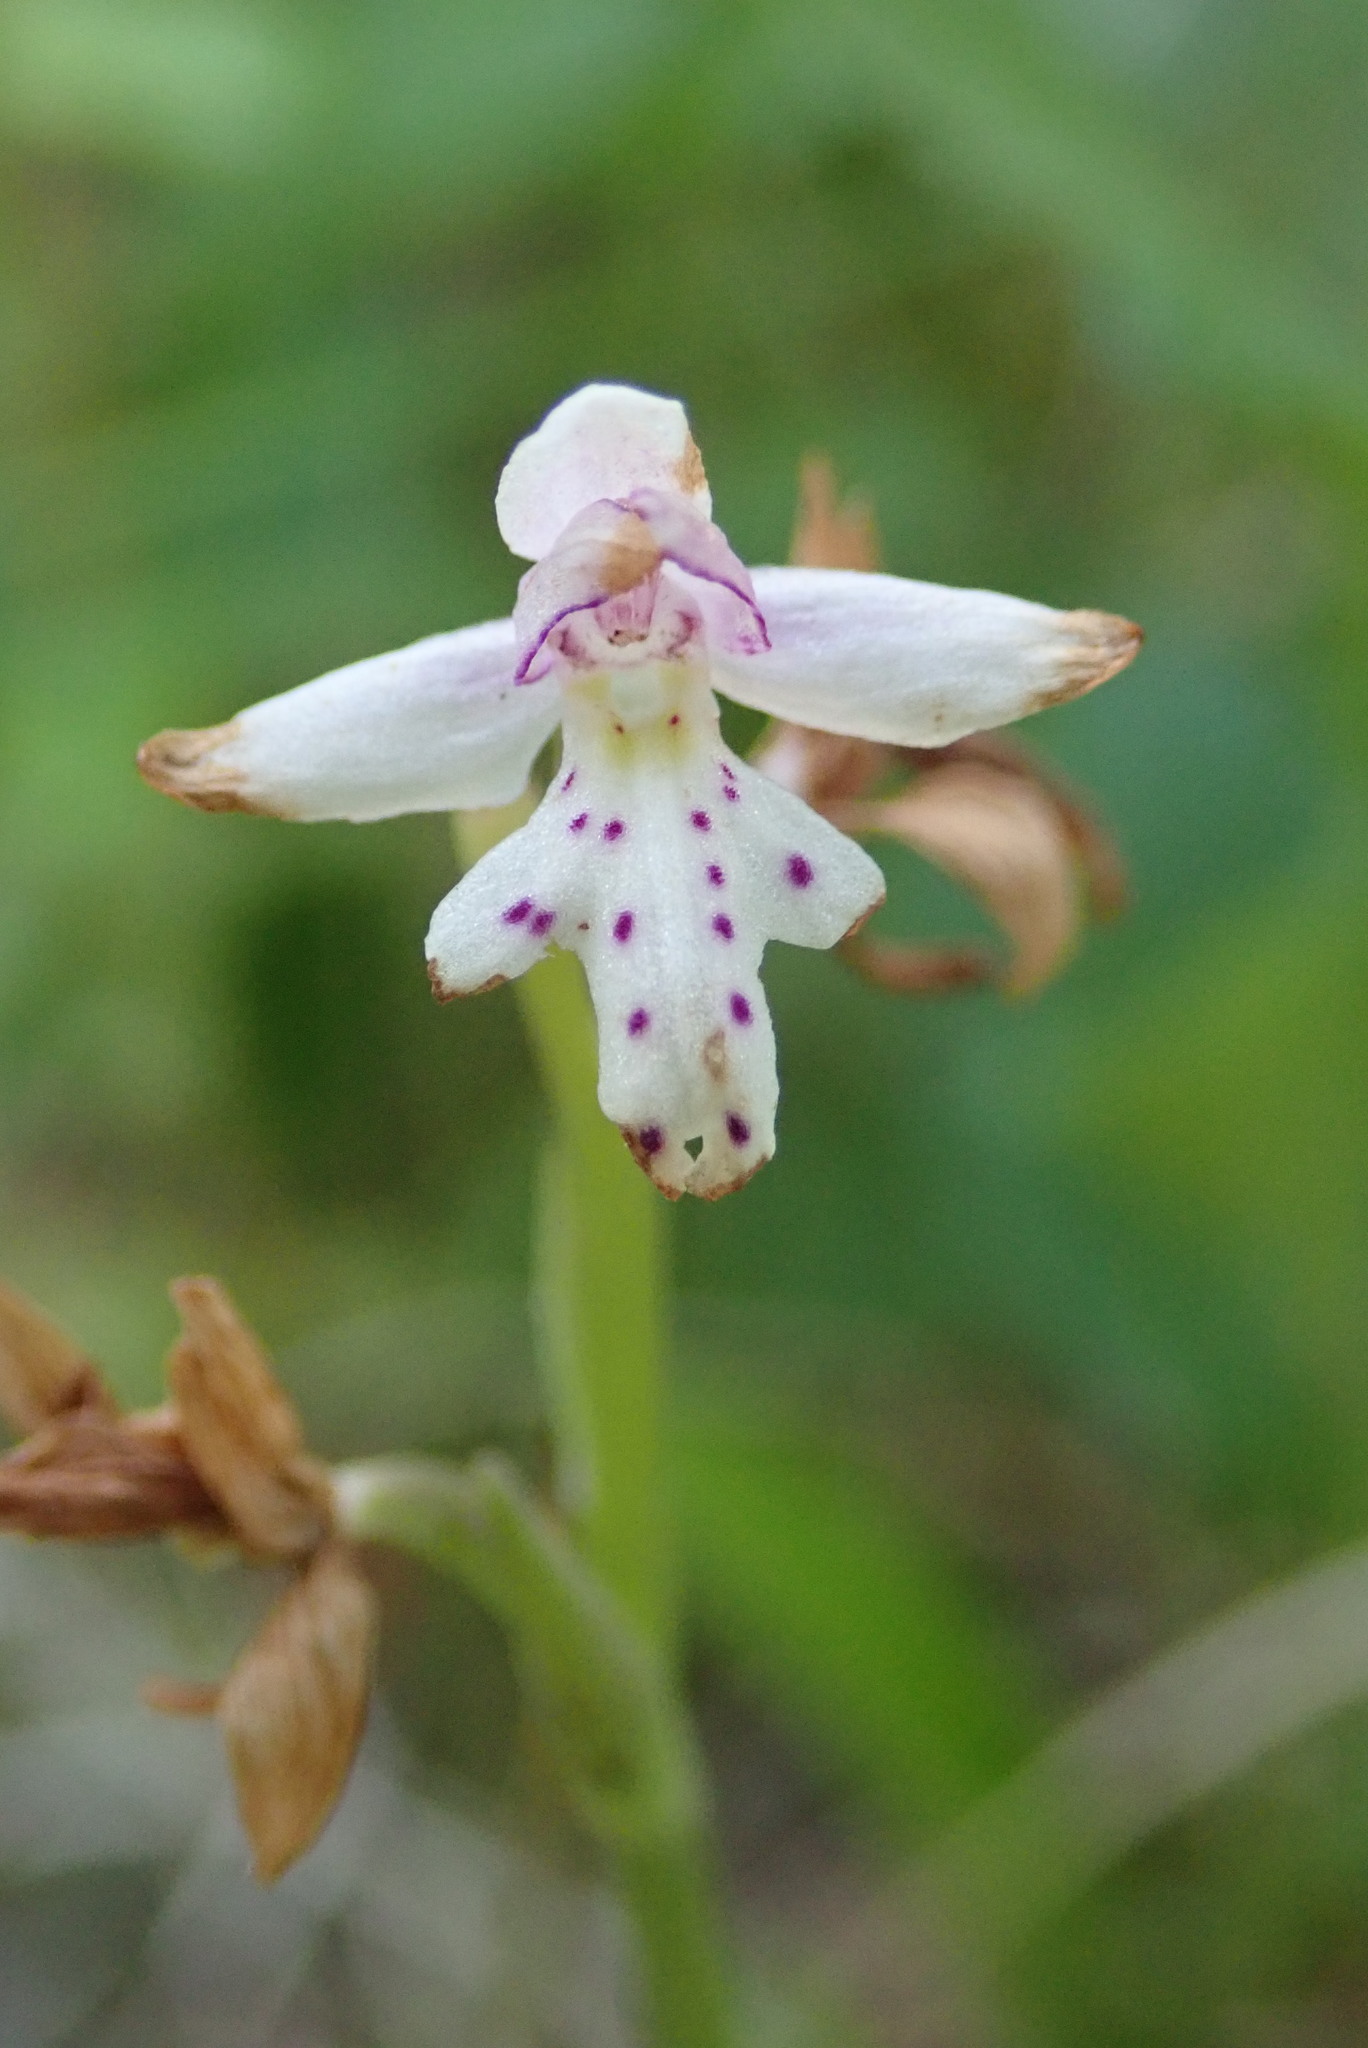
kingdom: Plantae
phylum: Tracheophyta
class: Liliopsida
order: Asparagales
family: Orchidaceae
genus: Galearis
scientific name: Galearis rotundifolia
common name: One-leaved orchis
